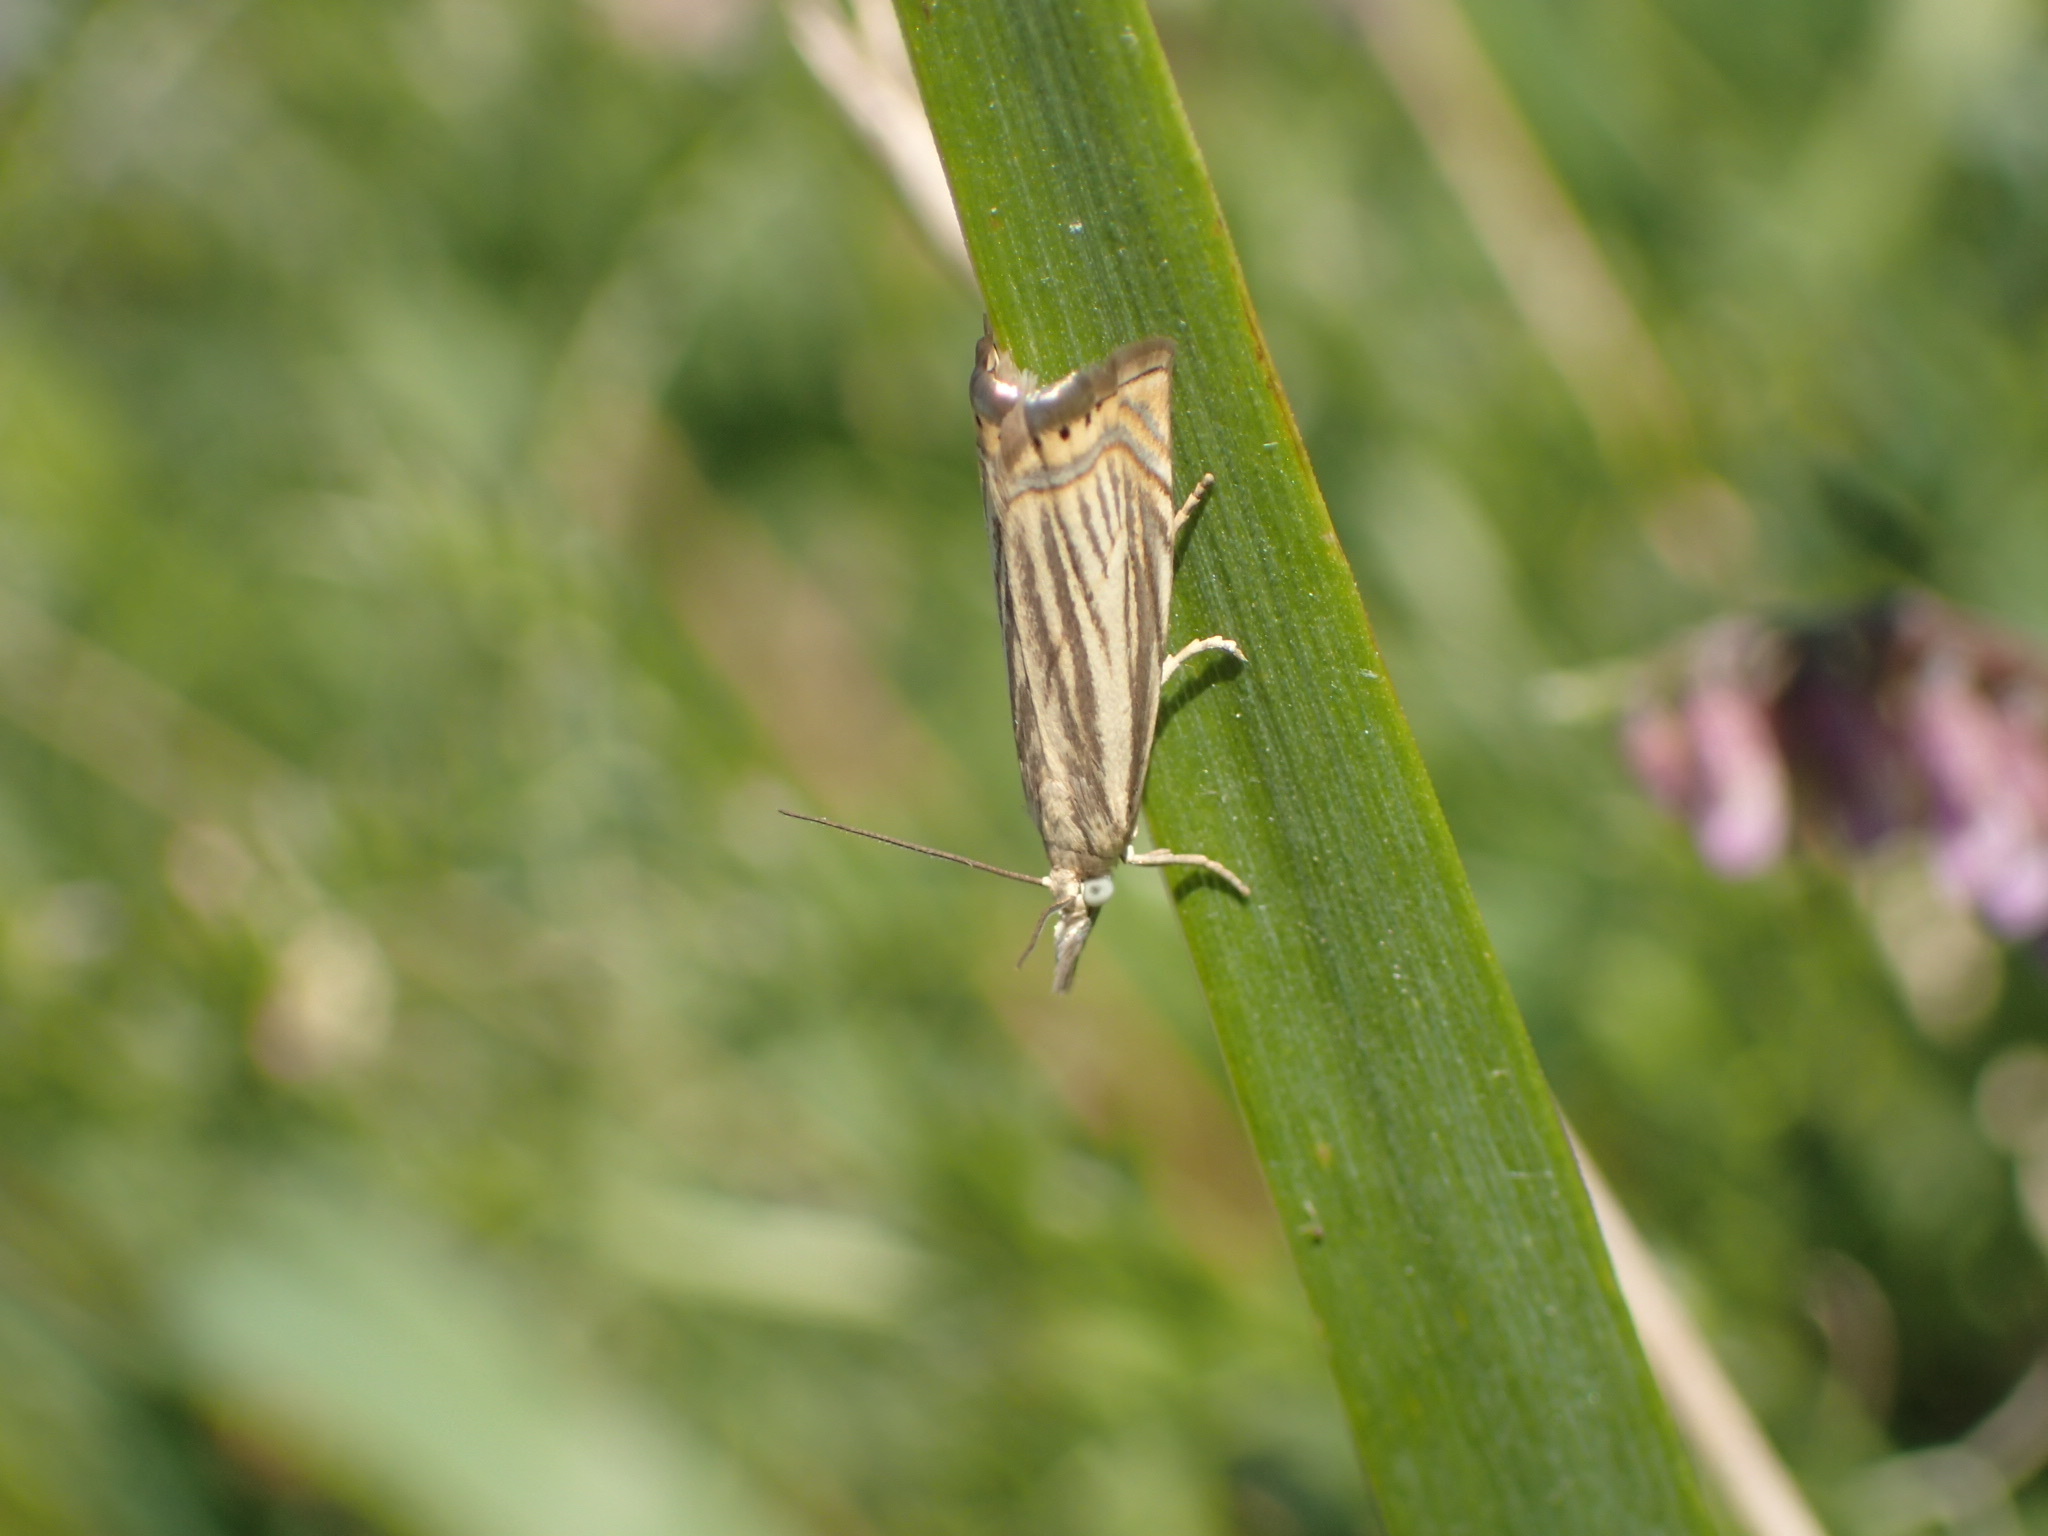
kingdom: Animalia
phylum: Arthropoda
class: Insecta
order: Lepidoptera
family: Crambidae
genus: Chrysoteuchia
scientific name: Chrysoteuchia topiarius
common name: Topiary grass-veneer
